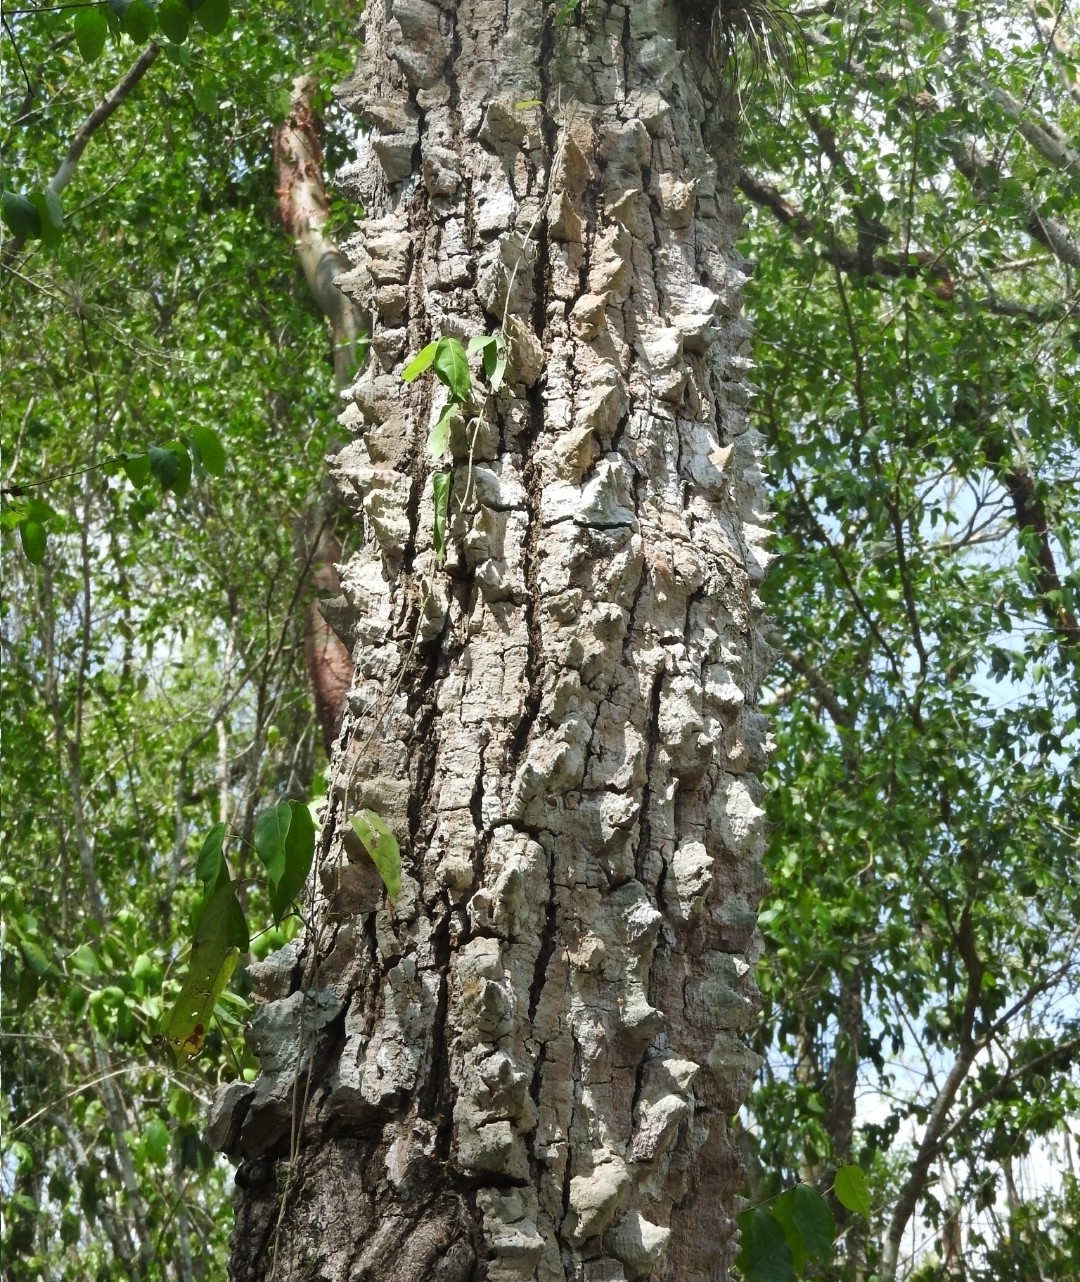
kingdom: Plantae
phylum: Tracheophyta
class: Magnoliopsida
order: Malvales
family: Malvaceae
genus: Ceiba
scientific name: Ceiba aesculifolia
